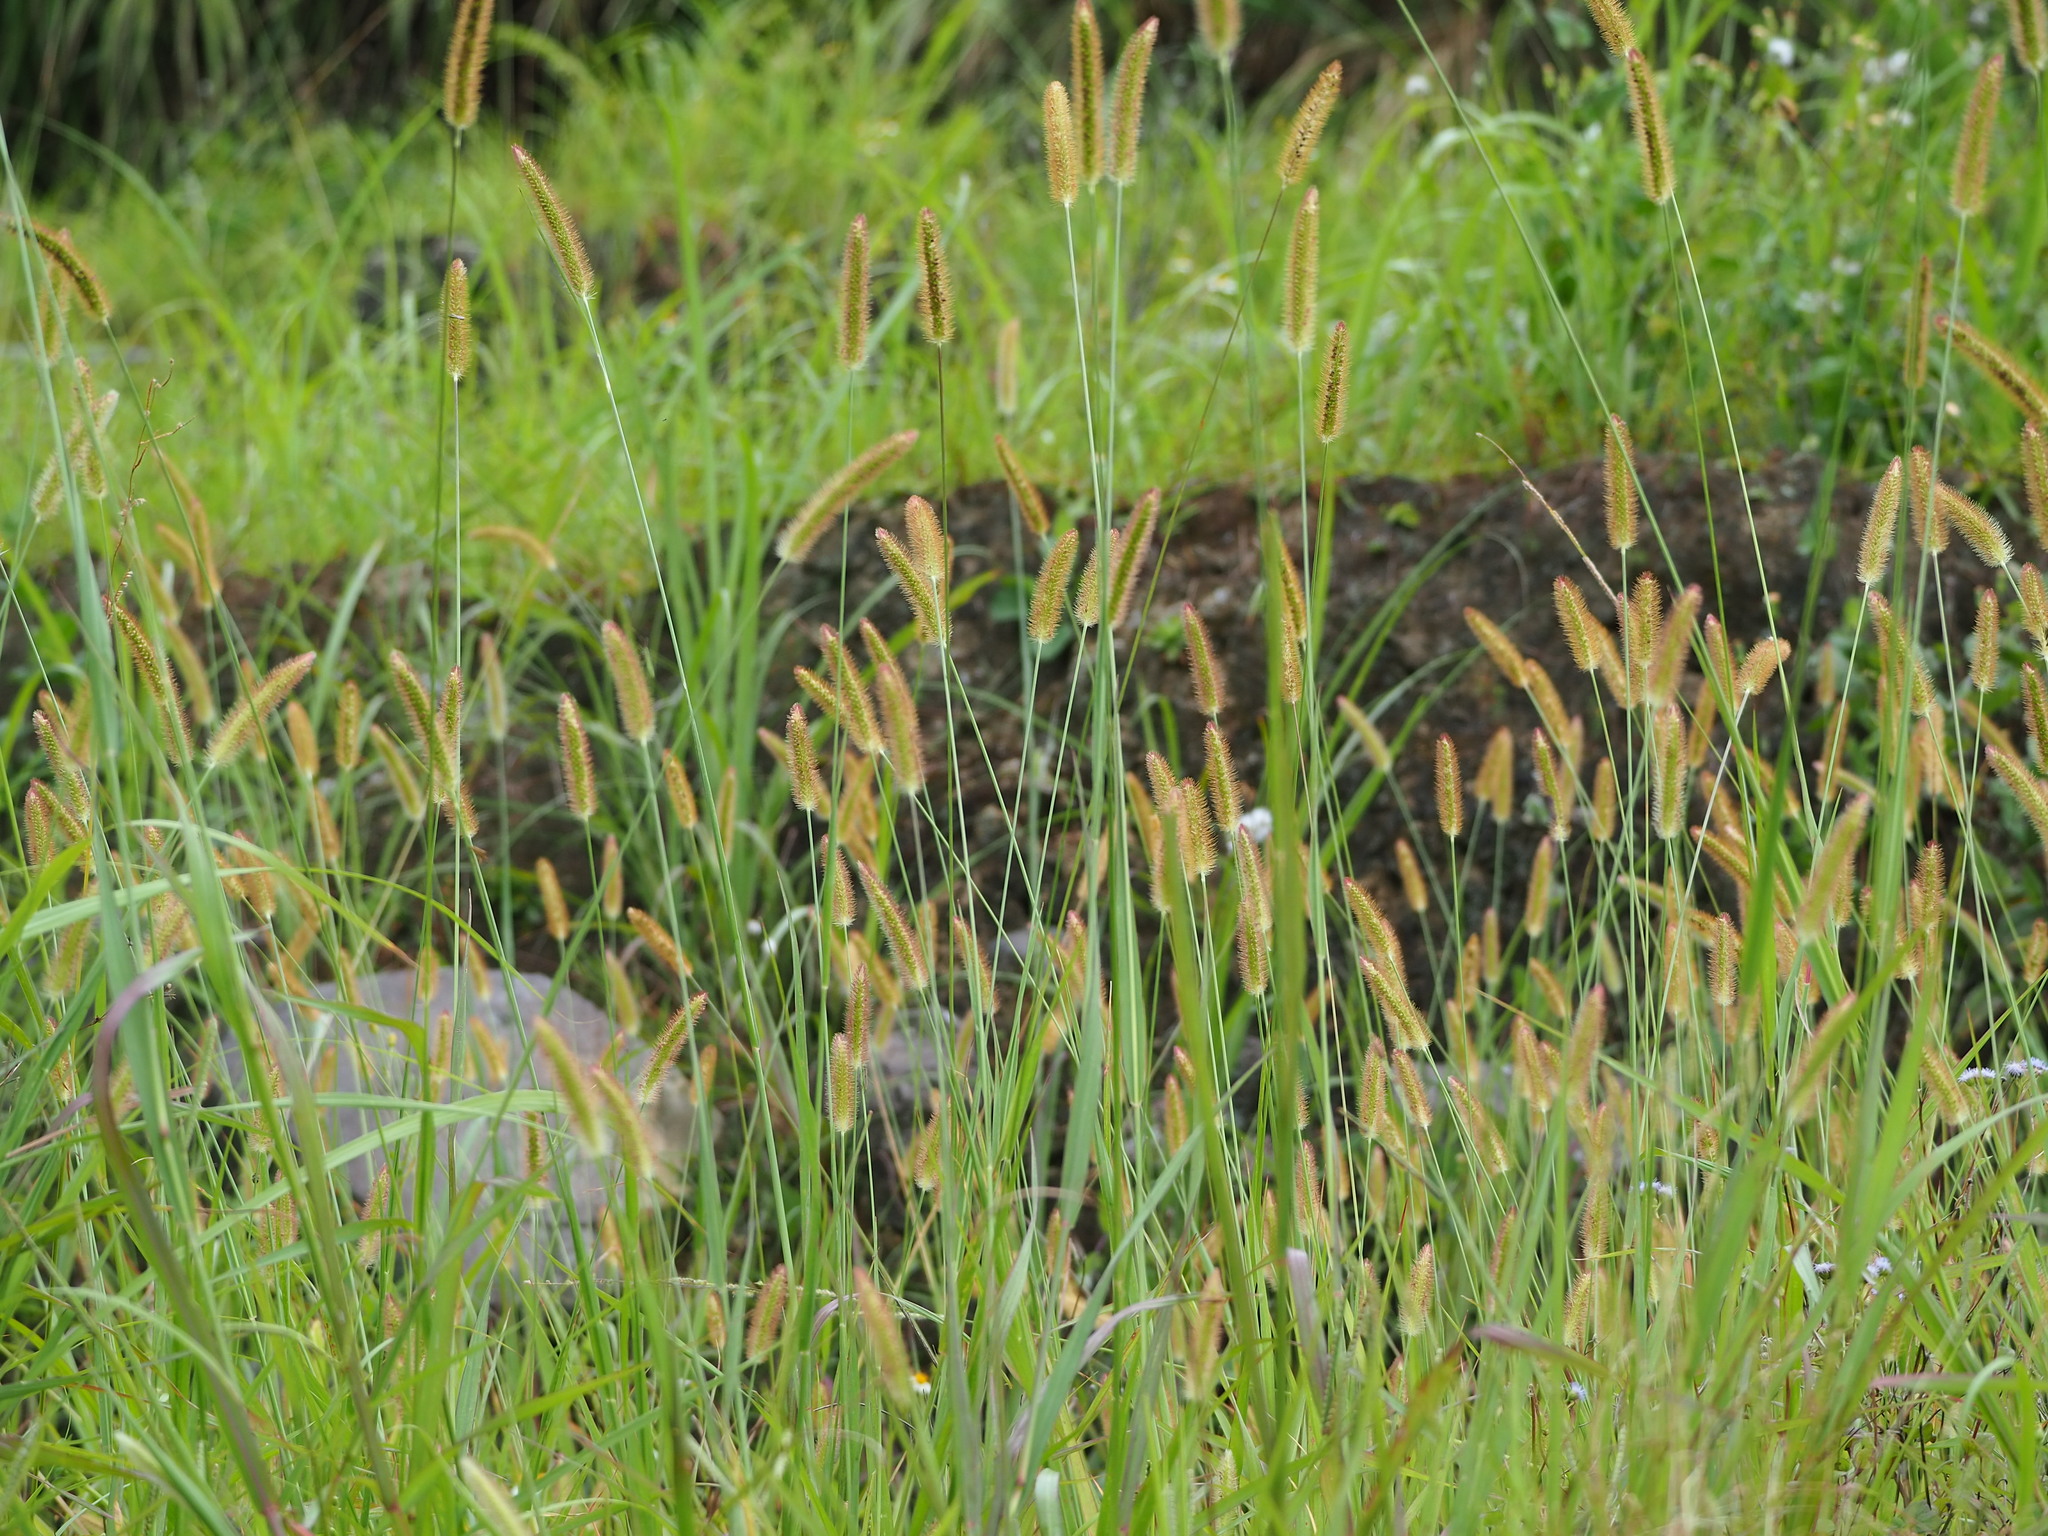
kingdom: Plantae
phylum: Tracheophyta
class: Liliopsida
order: Poales
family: Poaceae
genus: Setaria
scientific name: Setaria parviflora
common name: Knotroot bristle-grass
